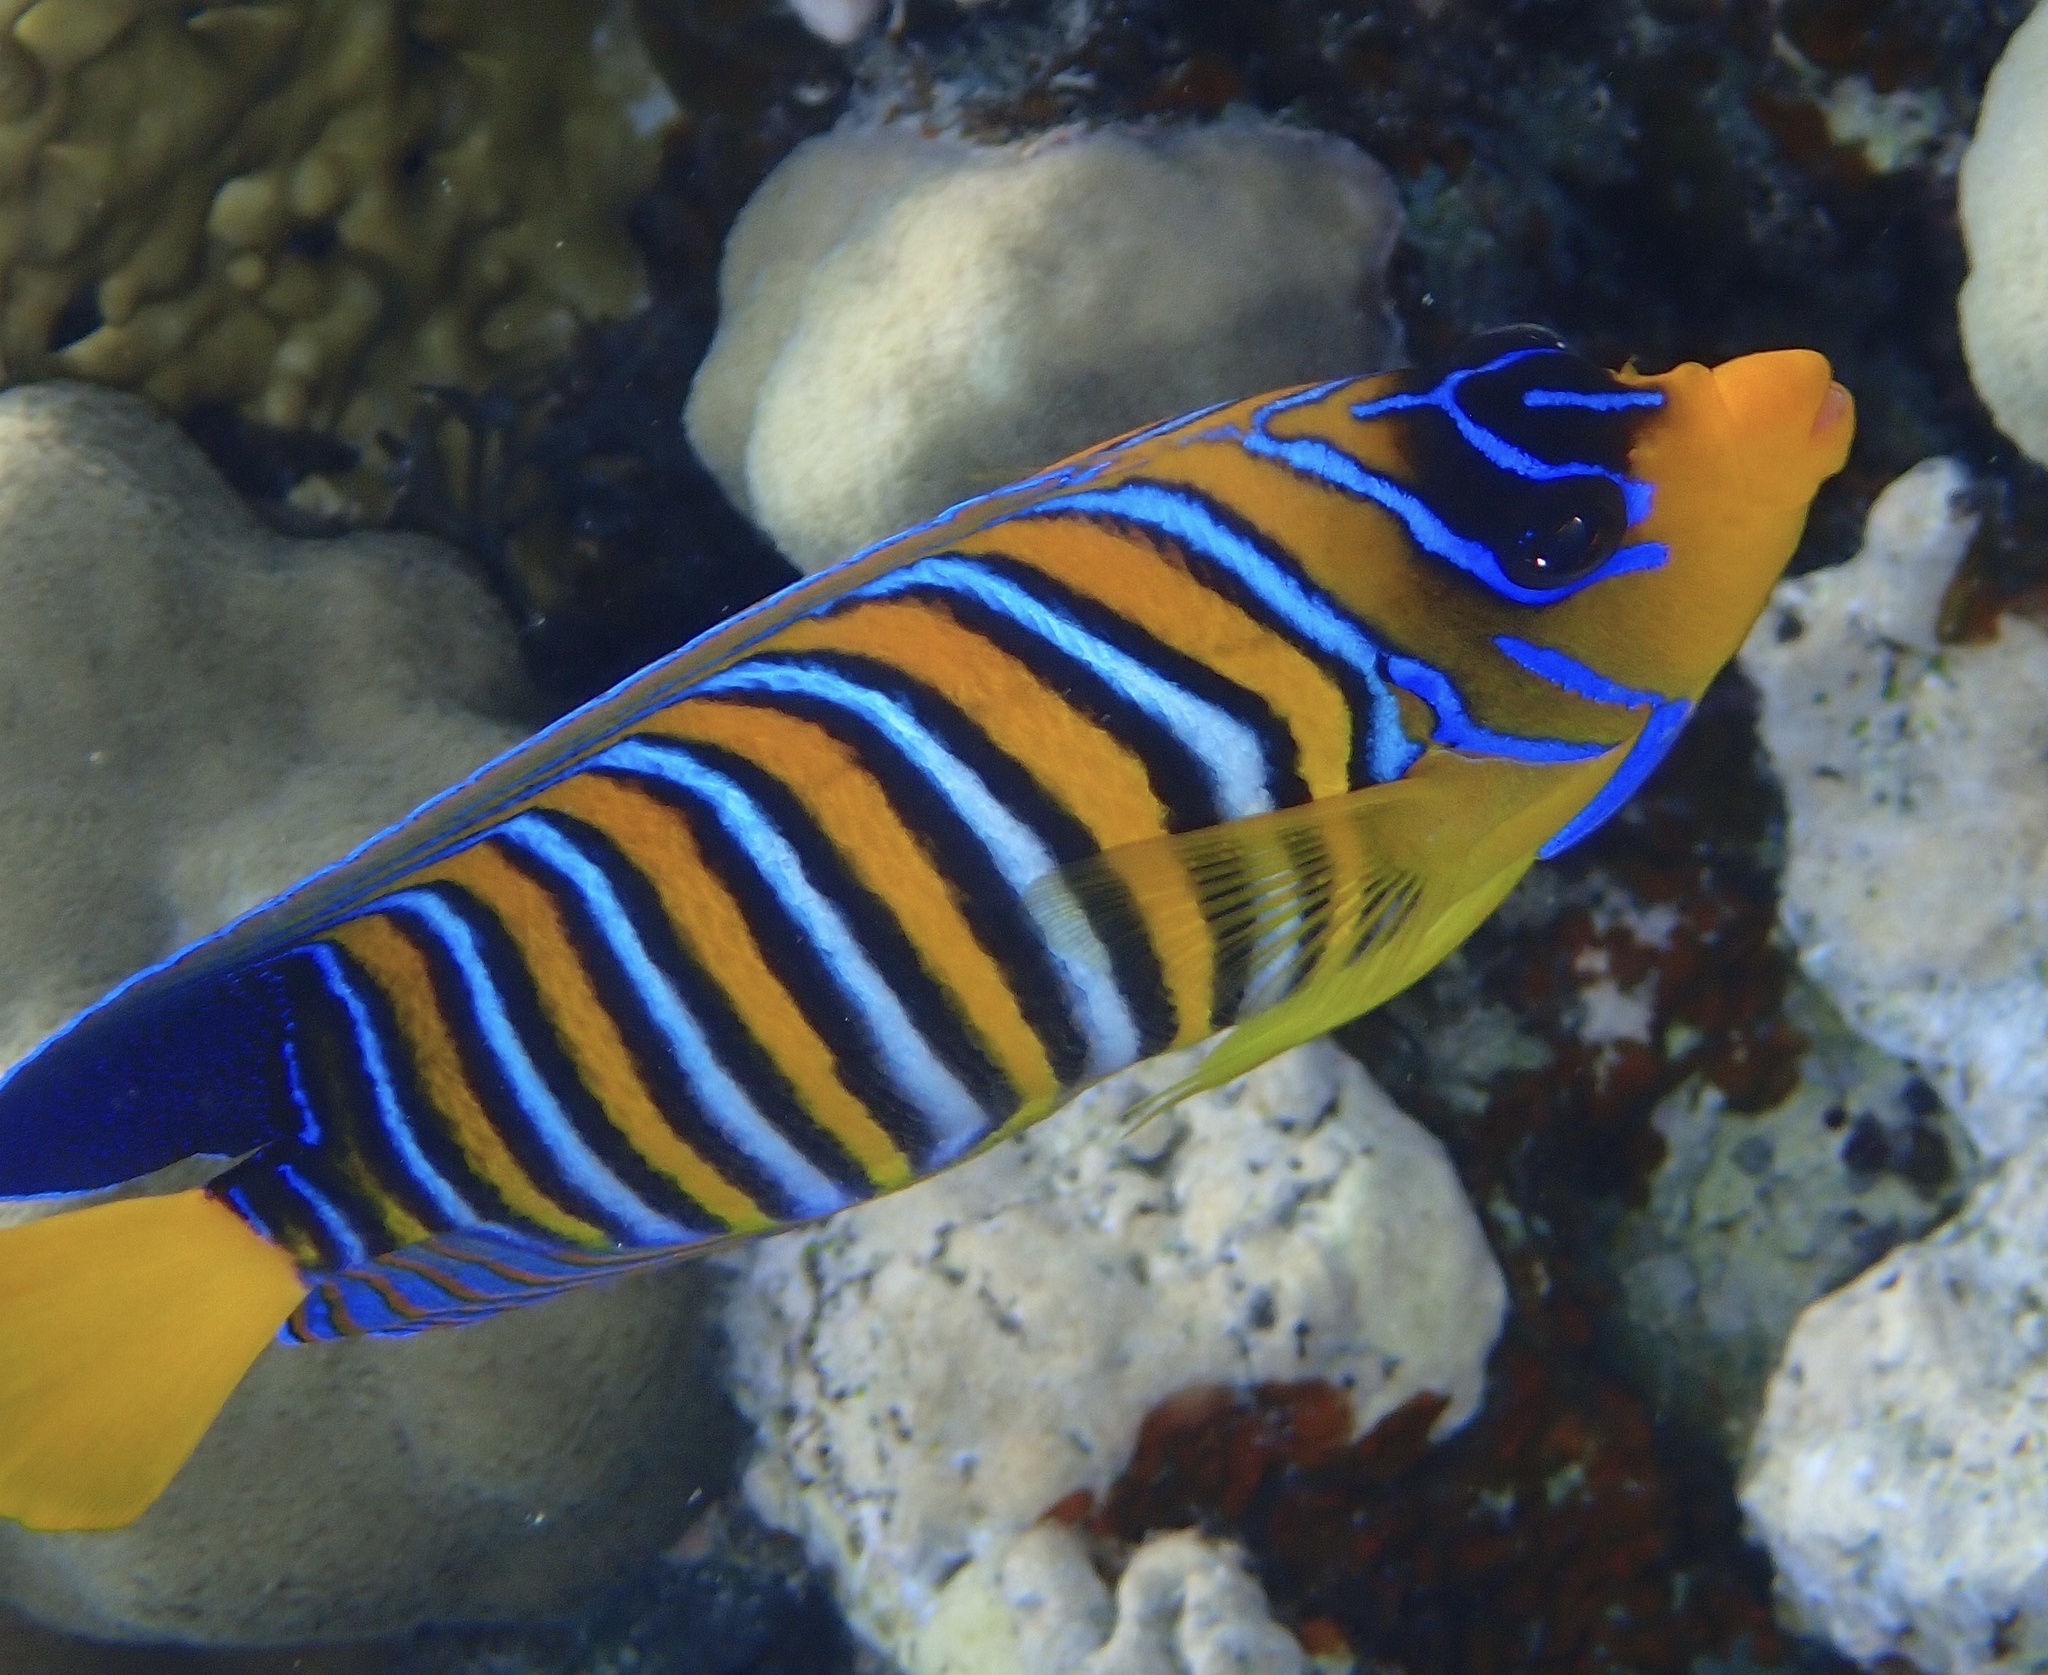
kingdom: Animalia
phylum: Chordata
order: Perciformes
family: Pomacanthidae
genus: Pygoplites
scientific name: Pygoplites diacanthus
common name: Regal angelfish
